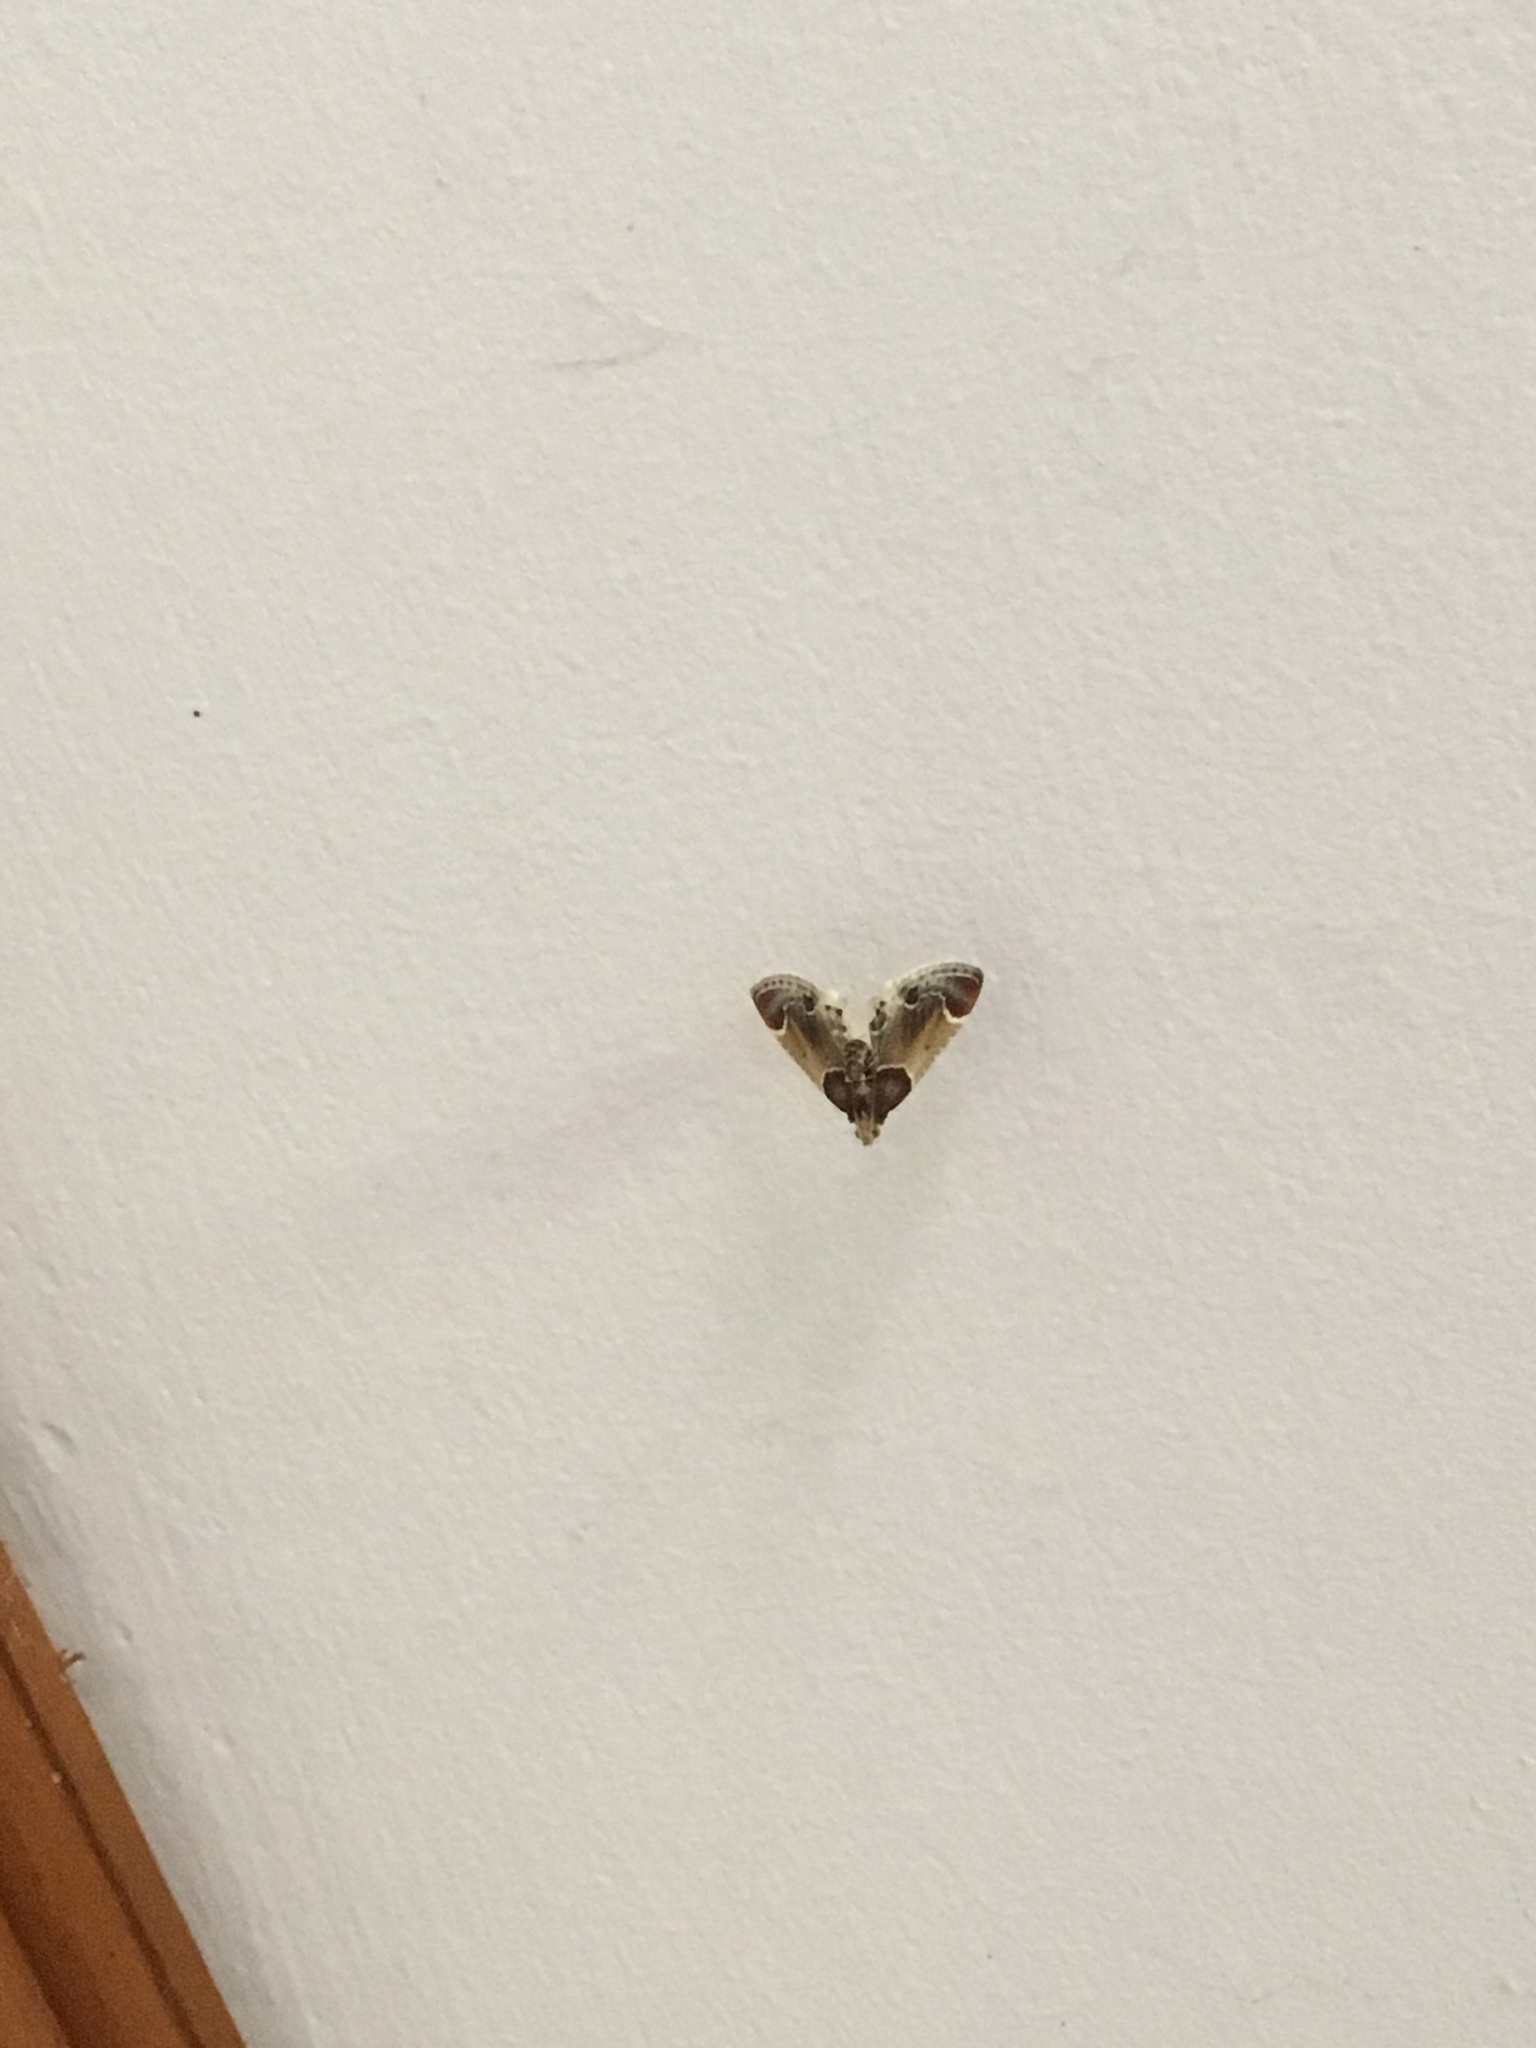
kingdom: Animalia
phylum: Arthropoda
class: Insecta
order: Lepidoptera
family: Pyralidae
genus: Pyralis
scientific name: Pyralis farinalis
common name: Meal moth
